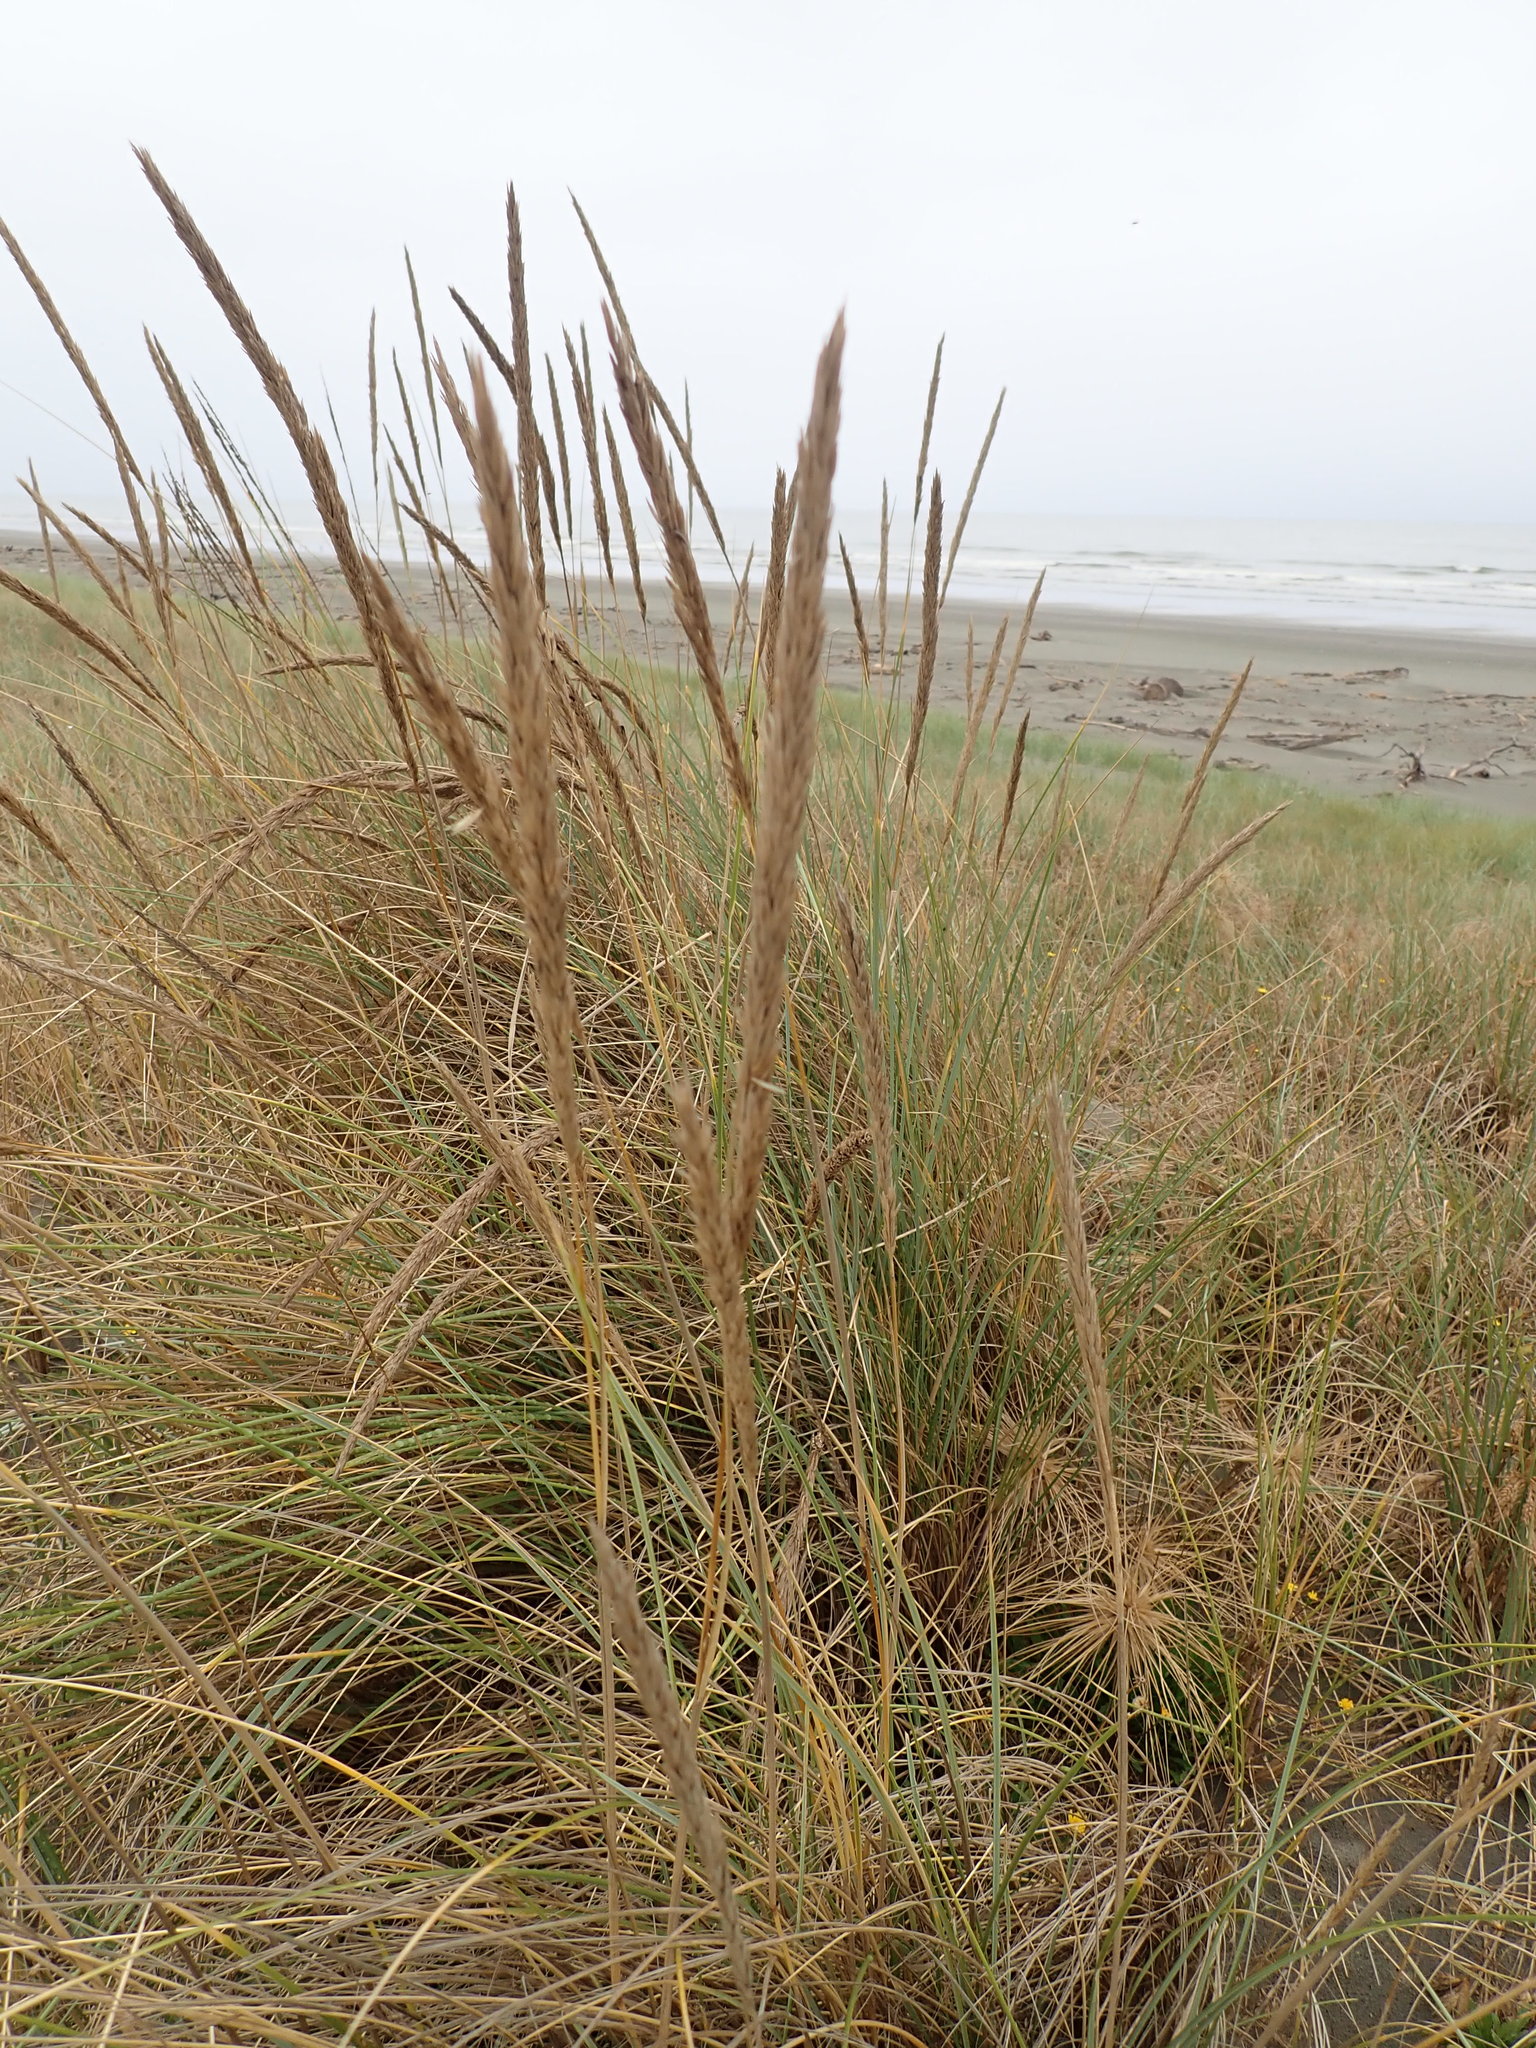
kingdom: Plantae
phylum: Tracheophyta
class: Liliopsida
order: Poales
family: Poaceae
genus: Calamagrostis
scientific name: Calamagrostis arenaria
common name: European beachgrass
